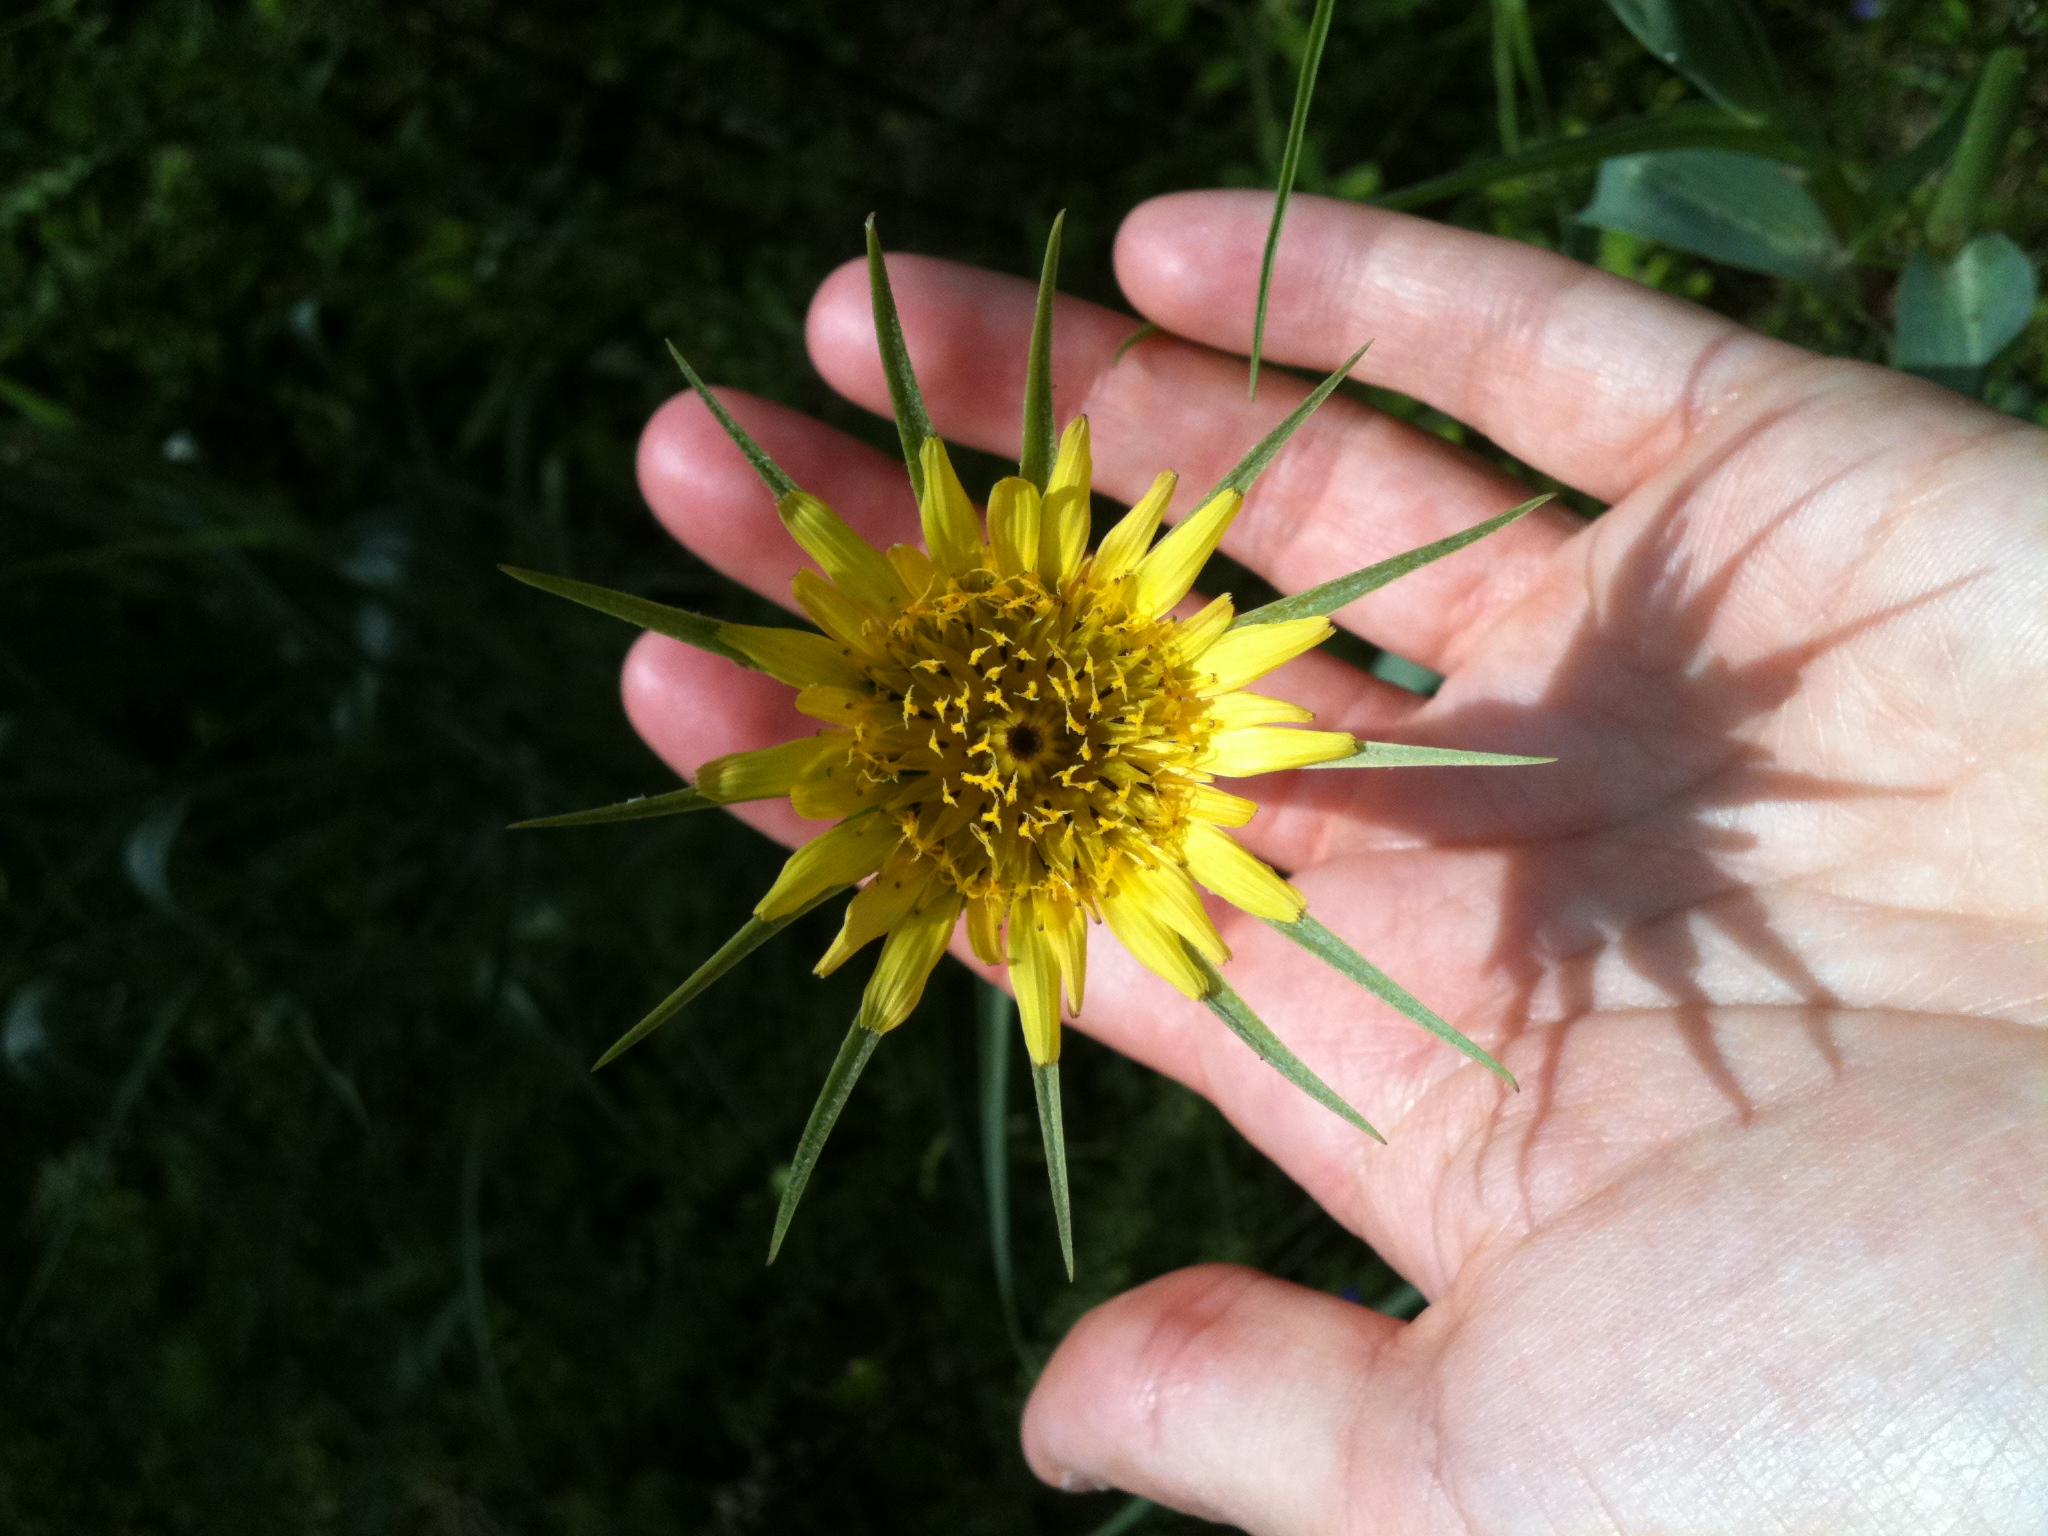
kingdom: Plantae
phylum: Tracheophyta
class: Magnoliopsida
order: Asterales
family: Asteraceae
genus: Tragopogon
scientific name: Tragopogon dubius
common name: Yellow salsify
